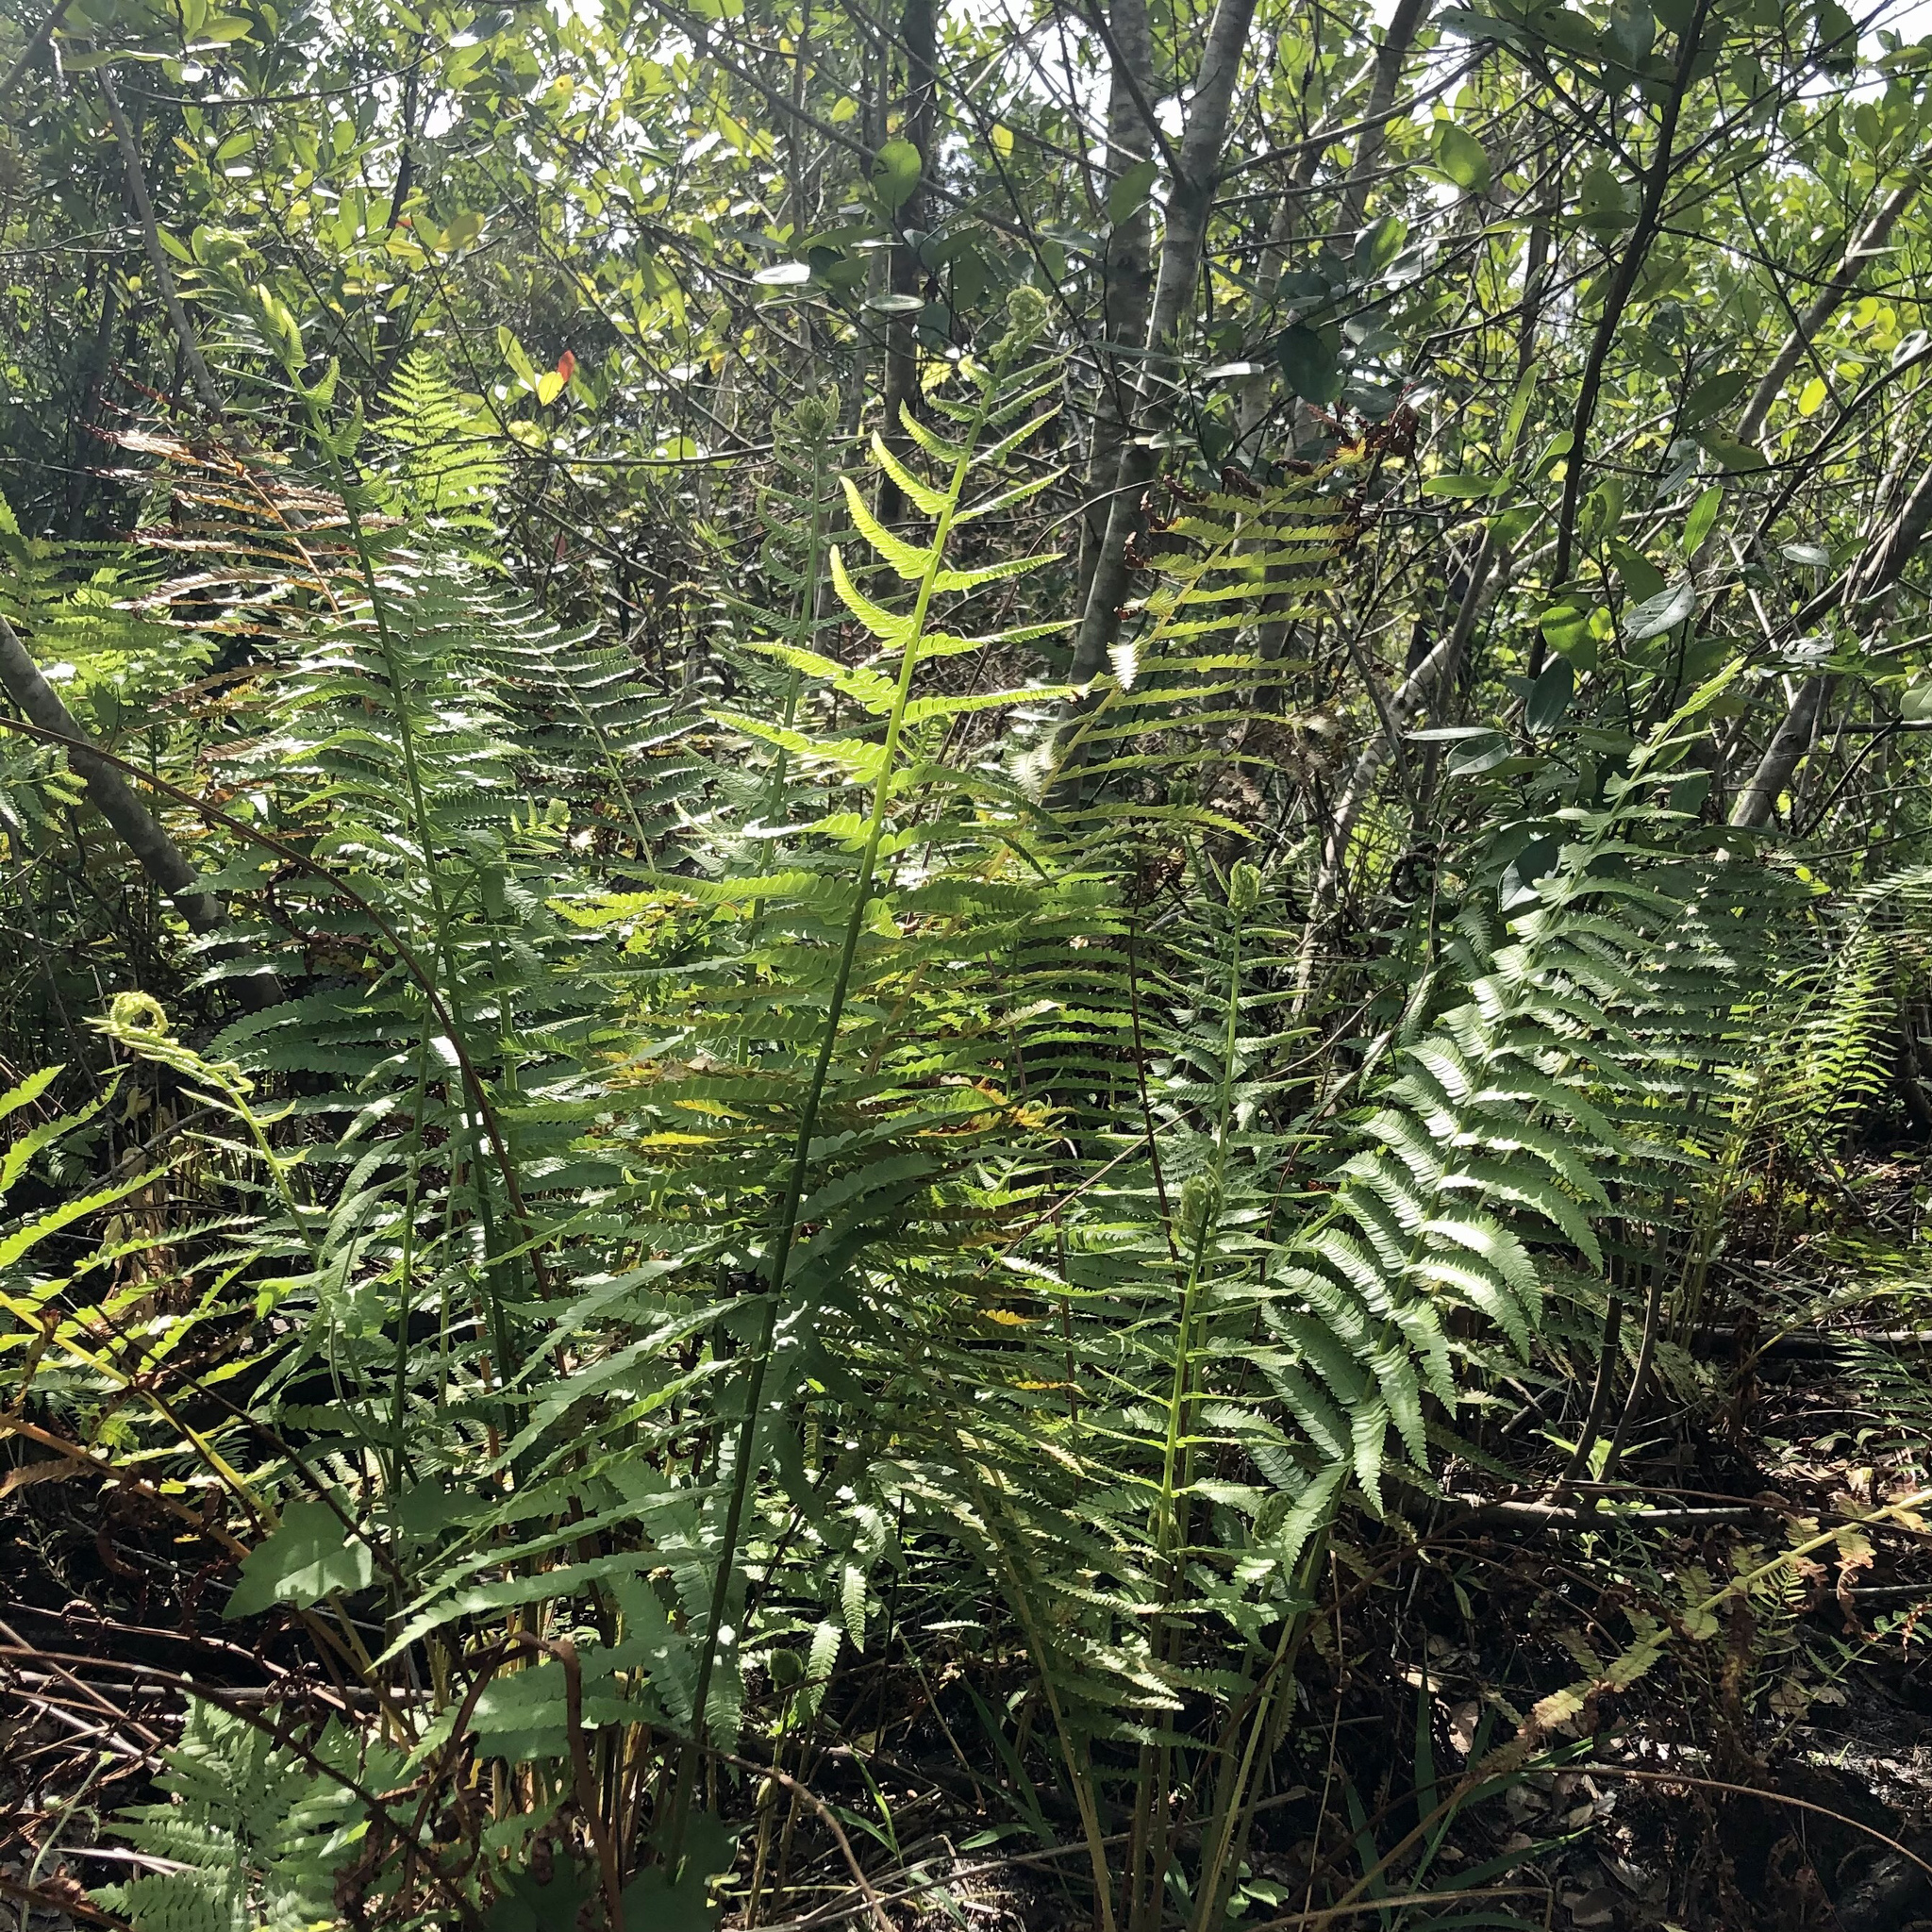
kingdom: Plantae
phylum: Tracheophyta
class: Polypodiopsida
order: Osmundales
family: Osmundaceae
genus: Osmundastrum
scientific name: Osmundastrum cinnamomeum
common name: Cinnamon fern
